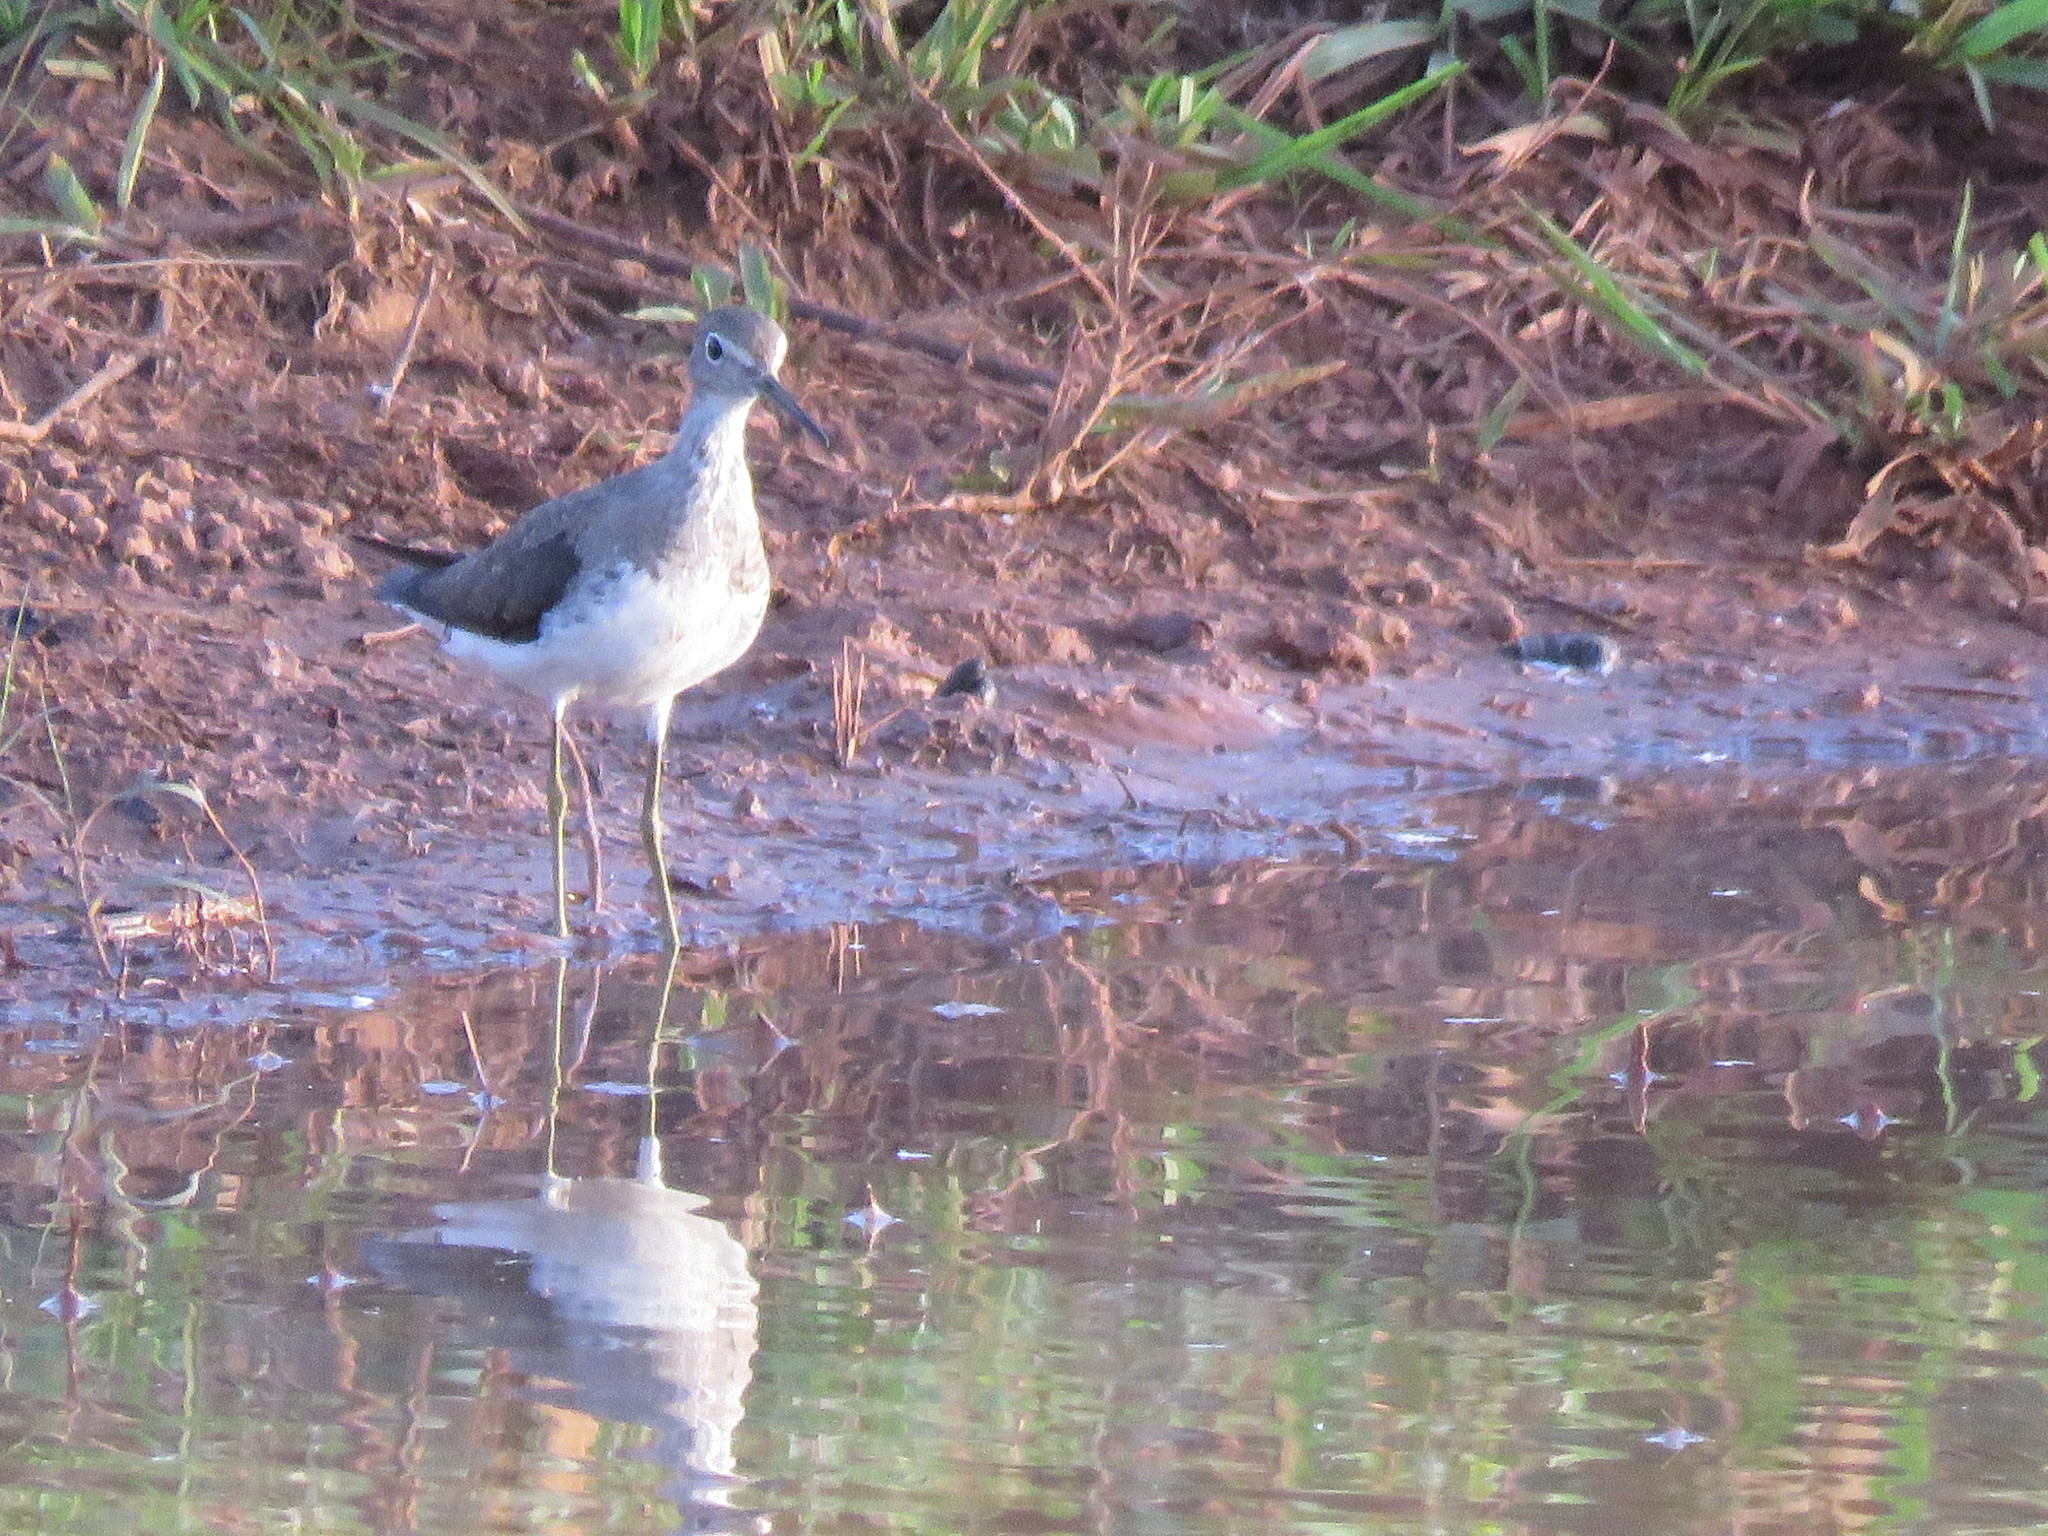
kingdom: Animalia
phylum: Chordata
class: Aves
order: Charadriiformes
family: Scolopacidae
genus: Tringa
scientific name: Tringa melanoleuca
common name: Greater yellowlegs
